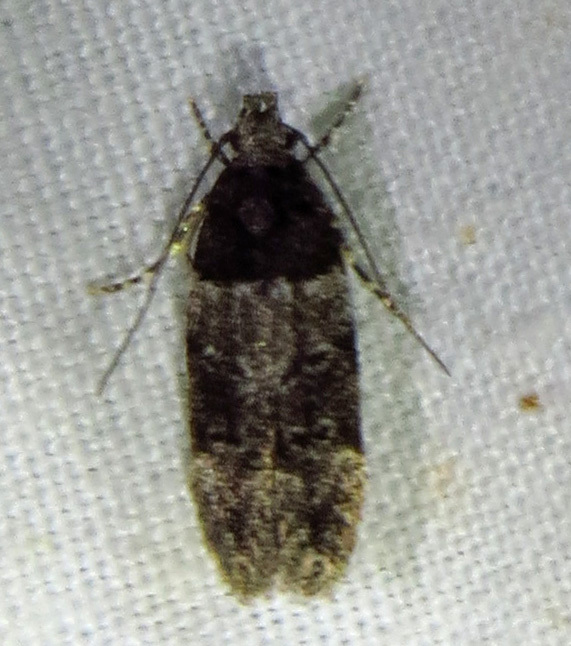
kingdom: Animalia
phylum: Arthropoda
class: Insecta
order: Lepidoptera
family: Gelechiidae
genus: Pubitelphusa
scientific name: Pubitelphusa latifasciella
